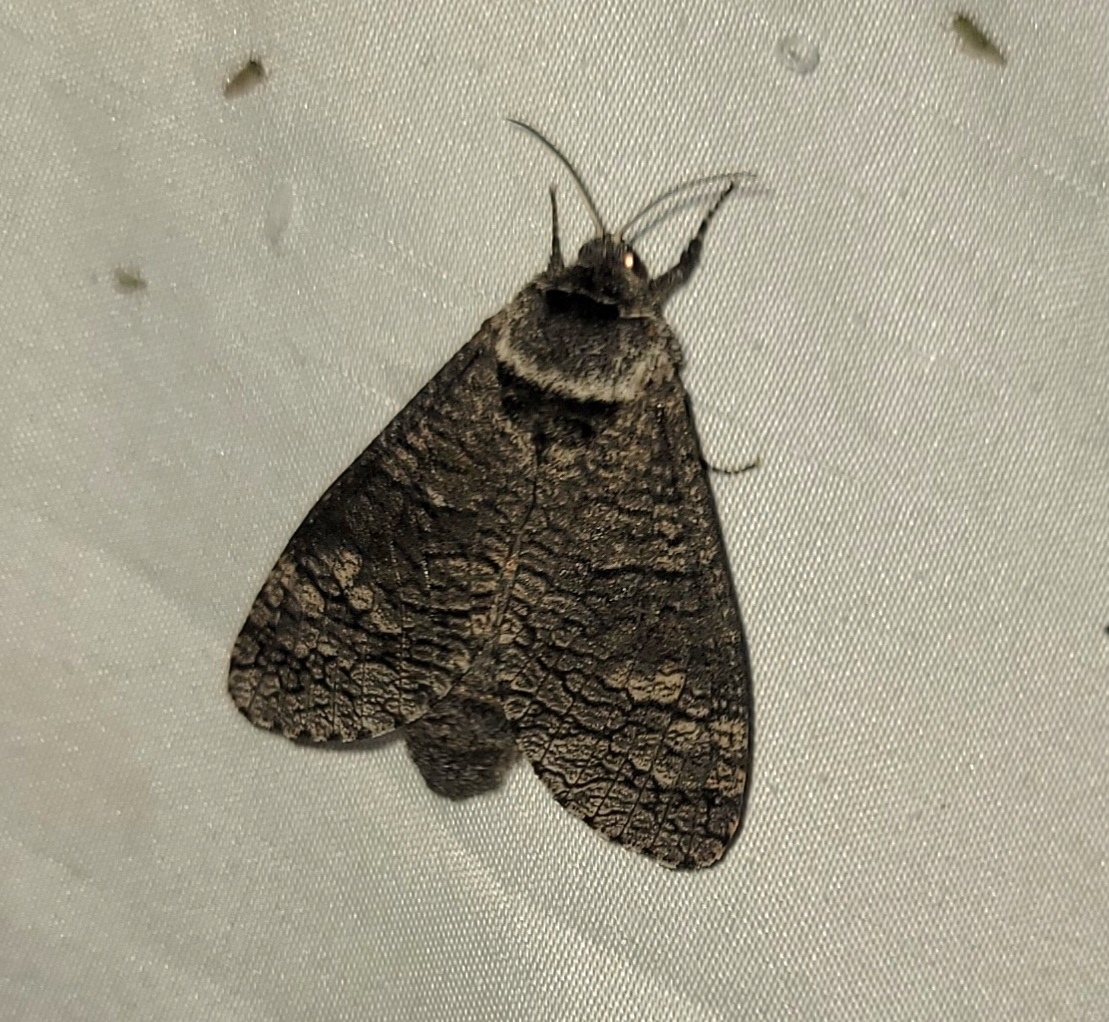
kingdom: Animalia
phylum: Arthropoda
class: Insecta
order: Lepidoptera
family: Cossidae
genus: Acossus
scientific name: Acossus centerensis
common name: Poplar carpenterworm moth
